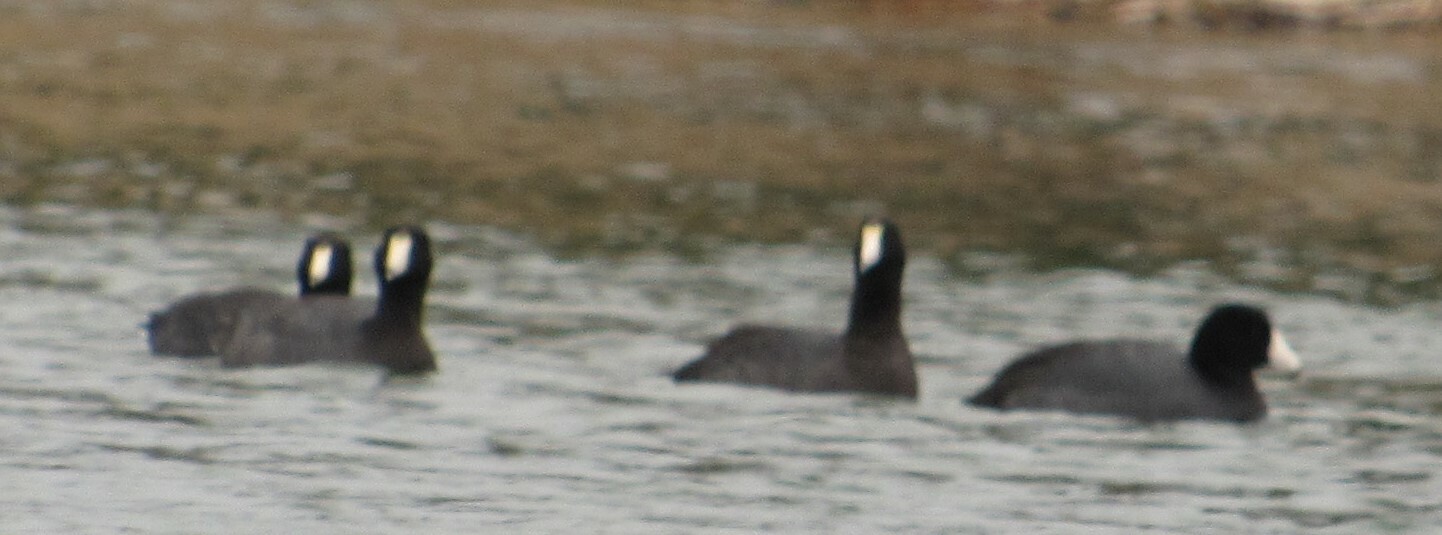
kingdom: Animalia
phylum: Chordata
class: Aves
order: Gruiformes
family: Rallidae
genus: Fulica
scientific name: Fulica americana
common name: American coot
